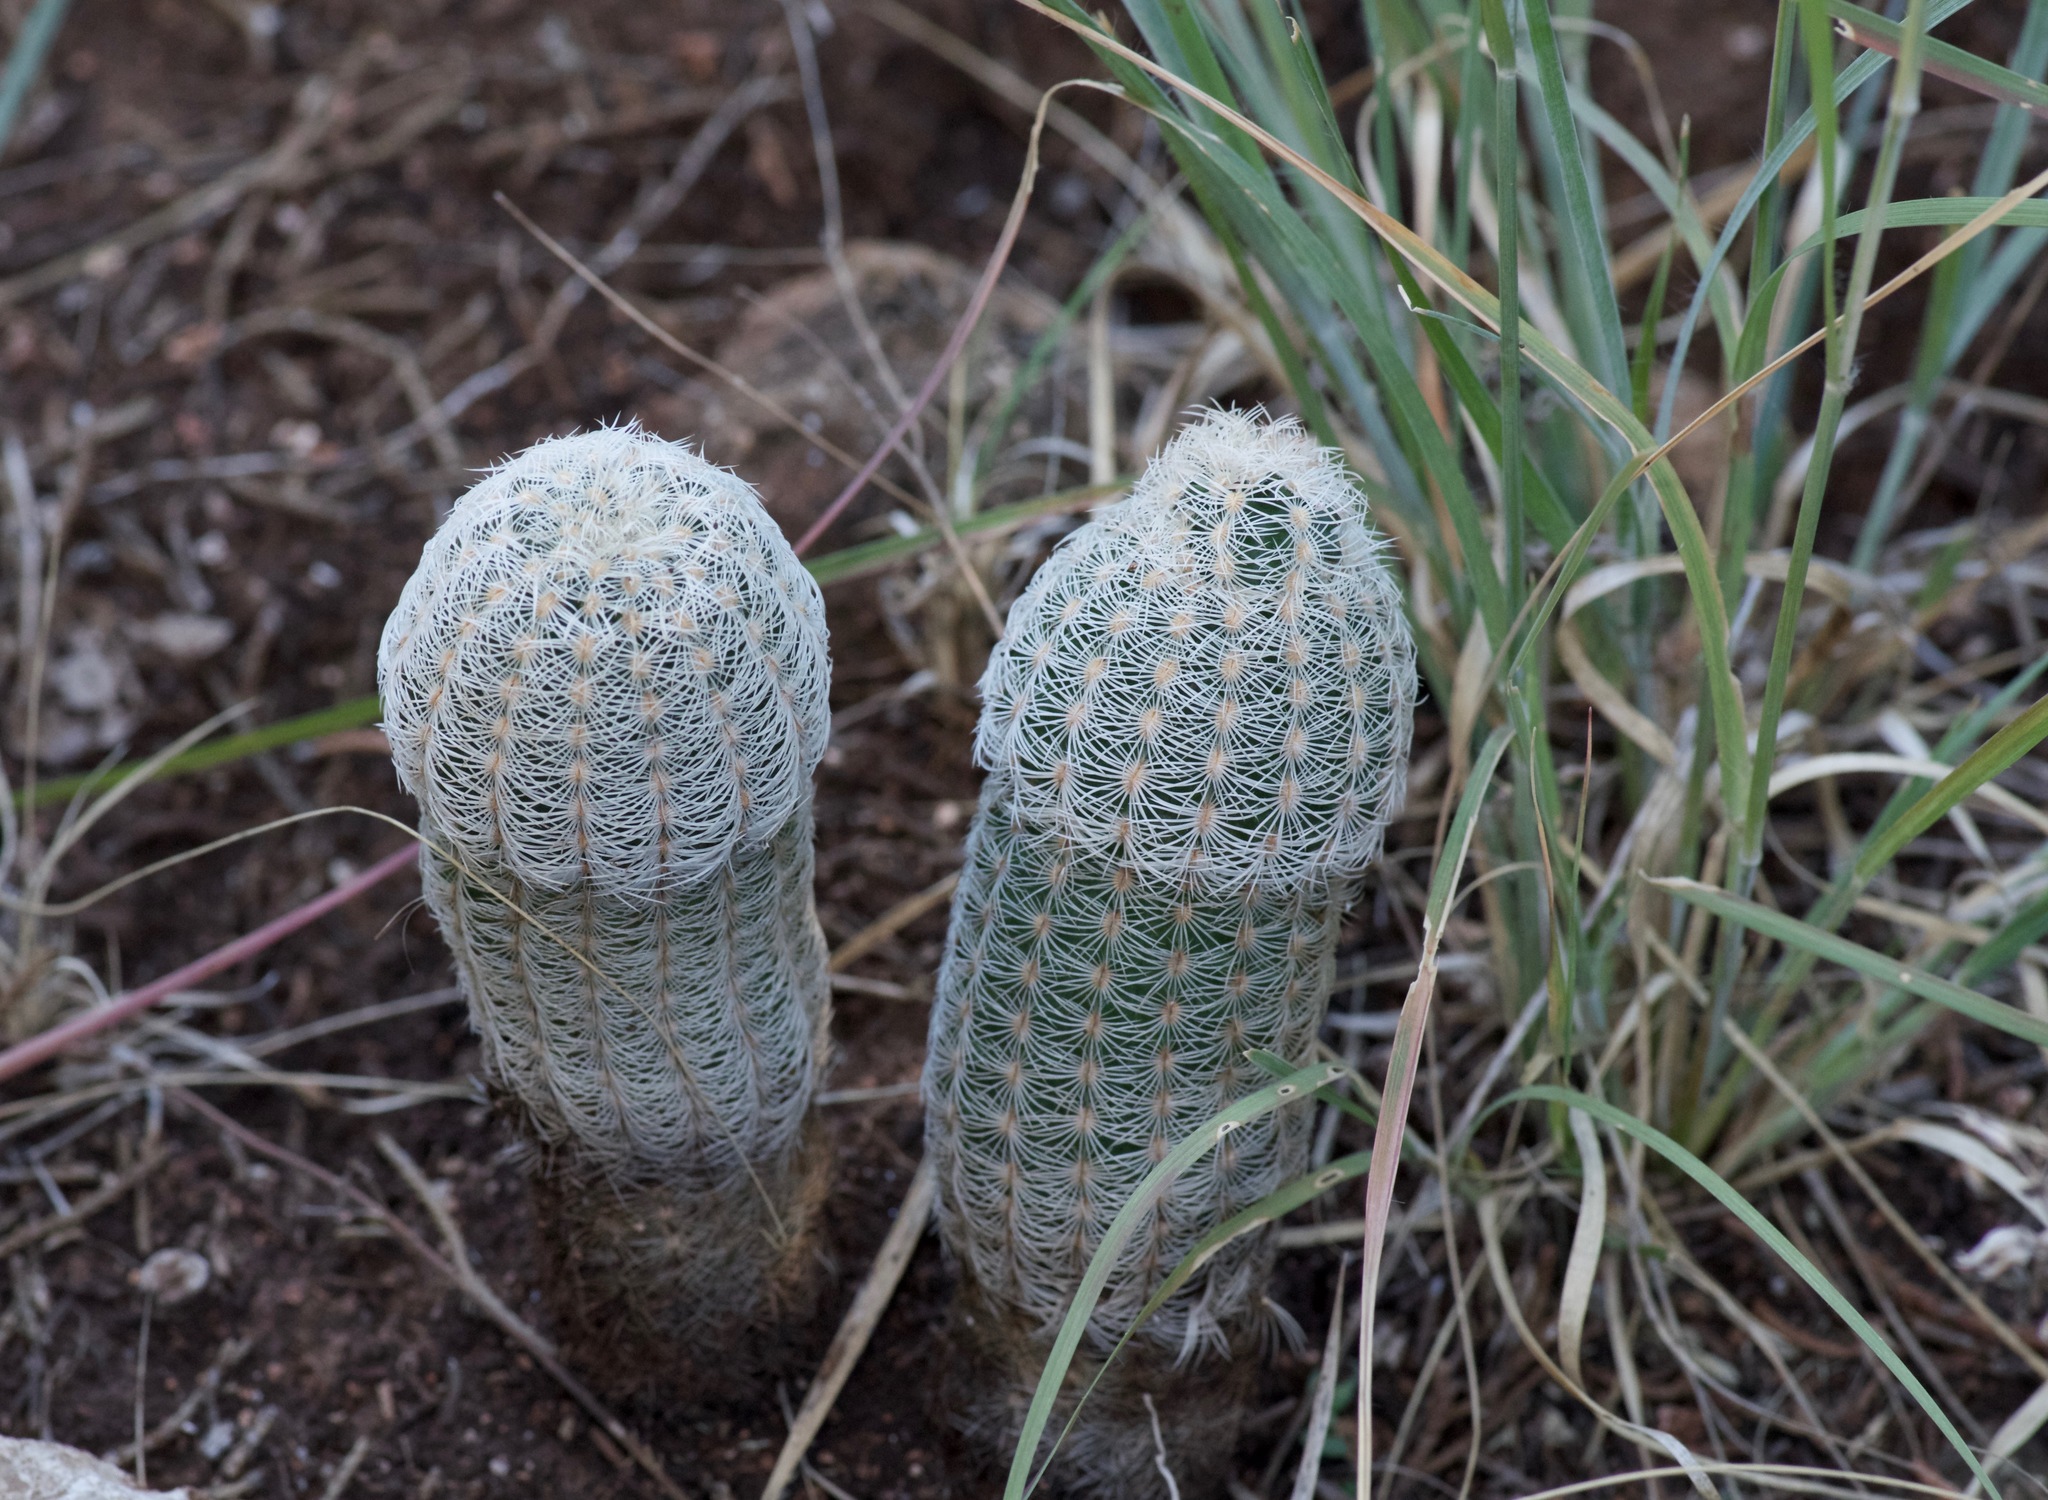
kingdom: Plantae
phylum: Tracheophyta
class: Magnoliopsida
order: Caryophyllales
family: Cactaceae
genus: Echinocereus
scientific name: Echinocereus reichenbachii
